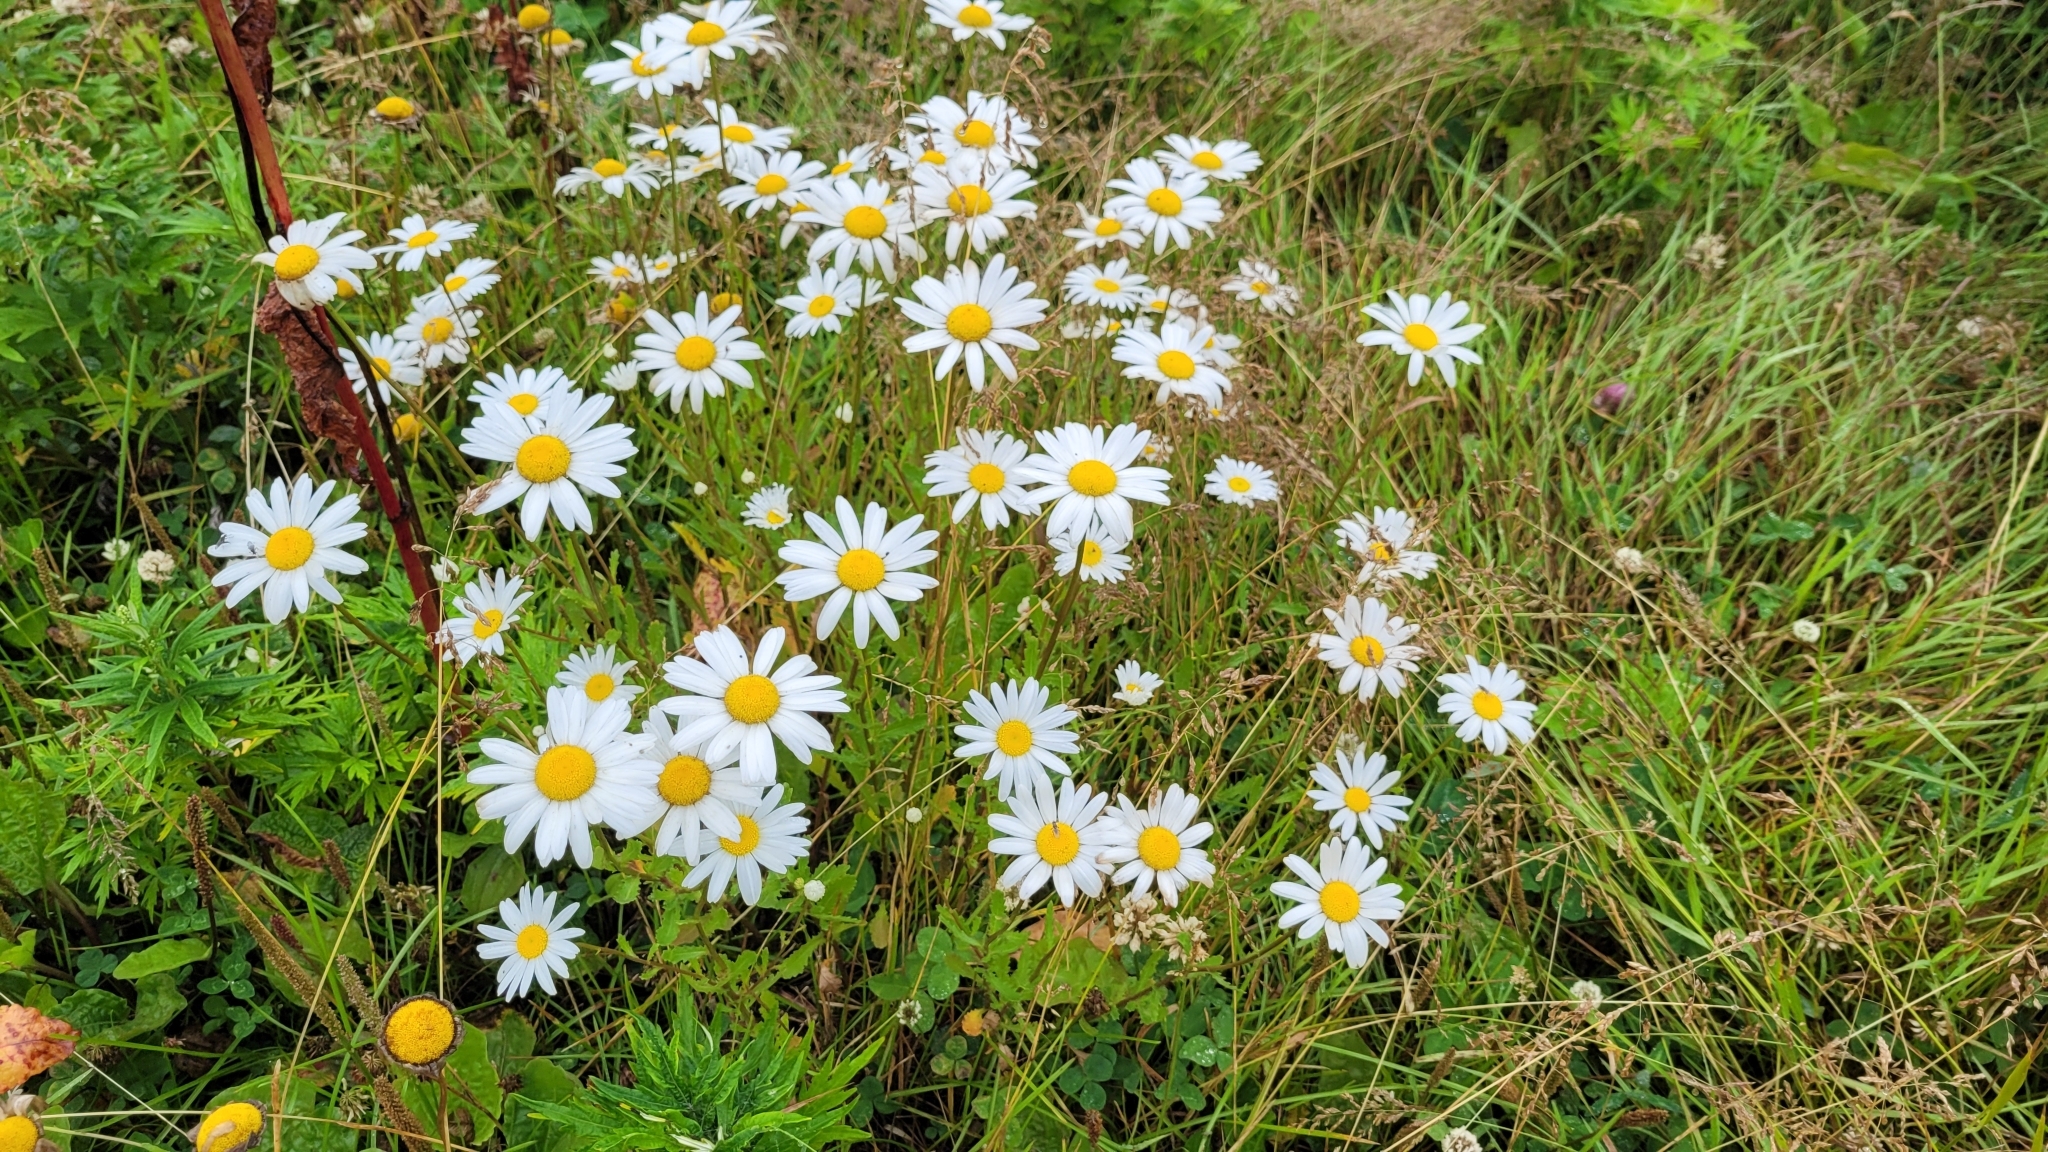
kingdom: Plantae
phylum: Tracheophyta
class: Magnoliopsida
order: Asterales
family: Asteraceae
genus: Leucanthemum
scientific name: Leucanthemum vulgare
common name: Oxeye daisy
